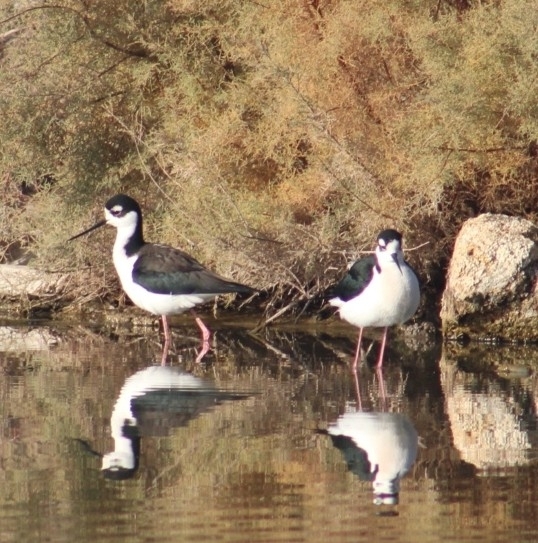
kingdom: Animalia
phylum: Chordata
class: Aves
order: Charadriiformes
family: Recurvirostridae
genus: Himantopus
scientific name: Himantopus mexicanus
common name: Black-necked stilt
